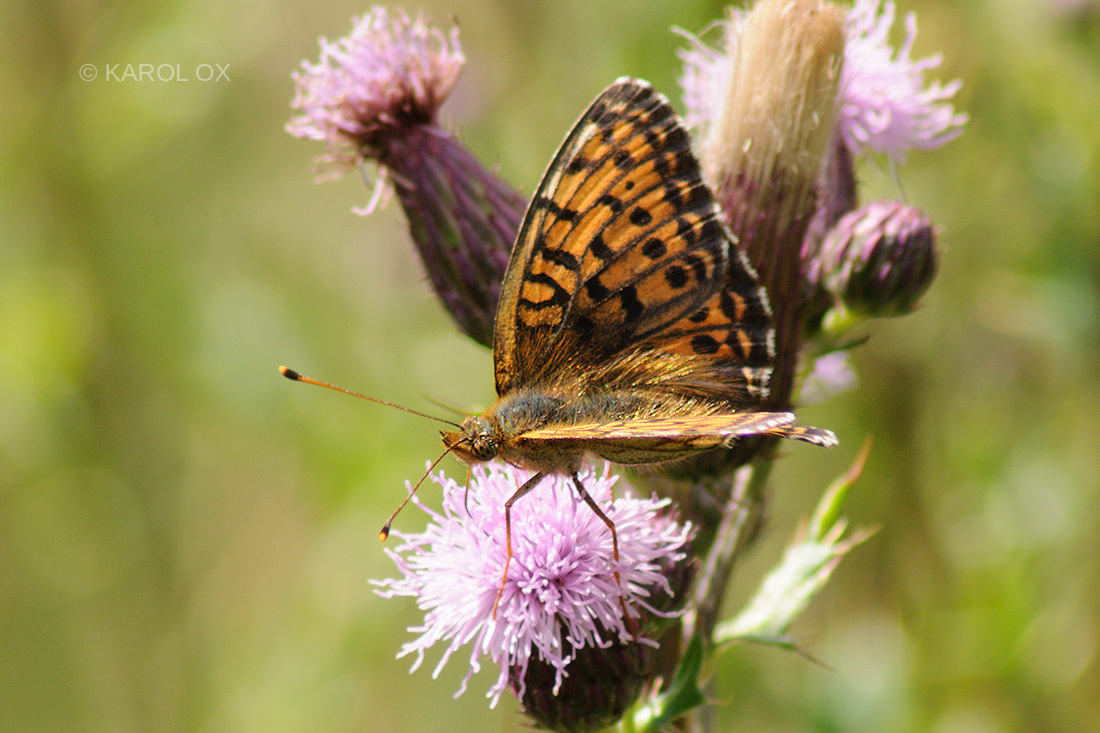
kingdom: Animalia
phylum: Arthropoda
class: Insecta
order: Lepidoptera
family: Nymphalidae
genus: Brenthis
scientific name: Brenthis ino
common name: Lesser marbled fritillary
